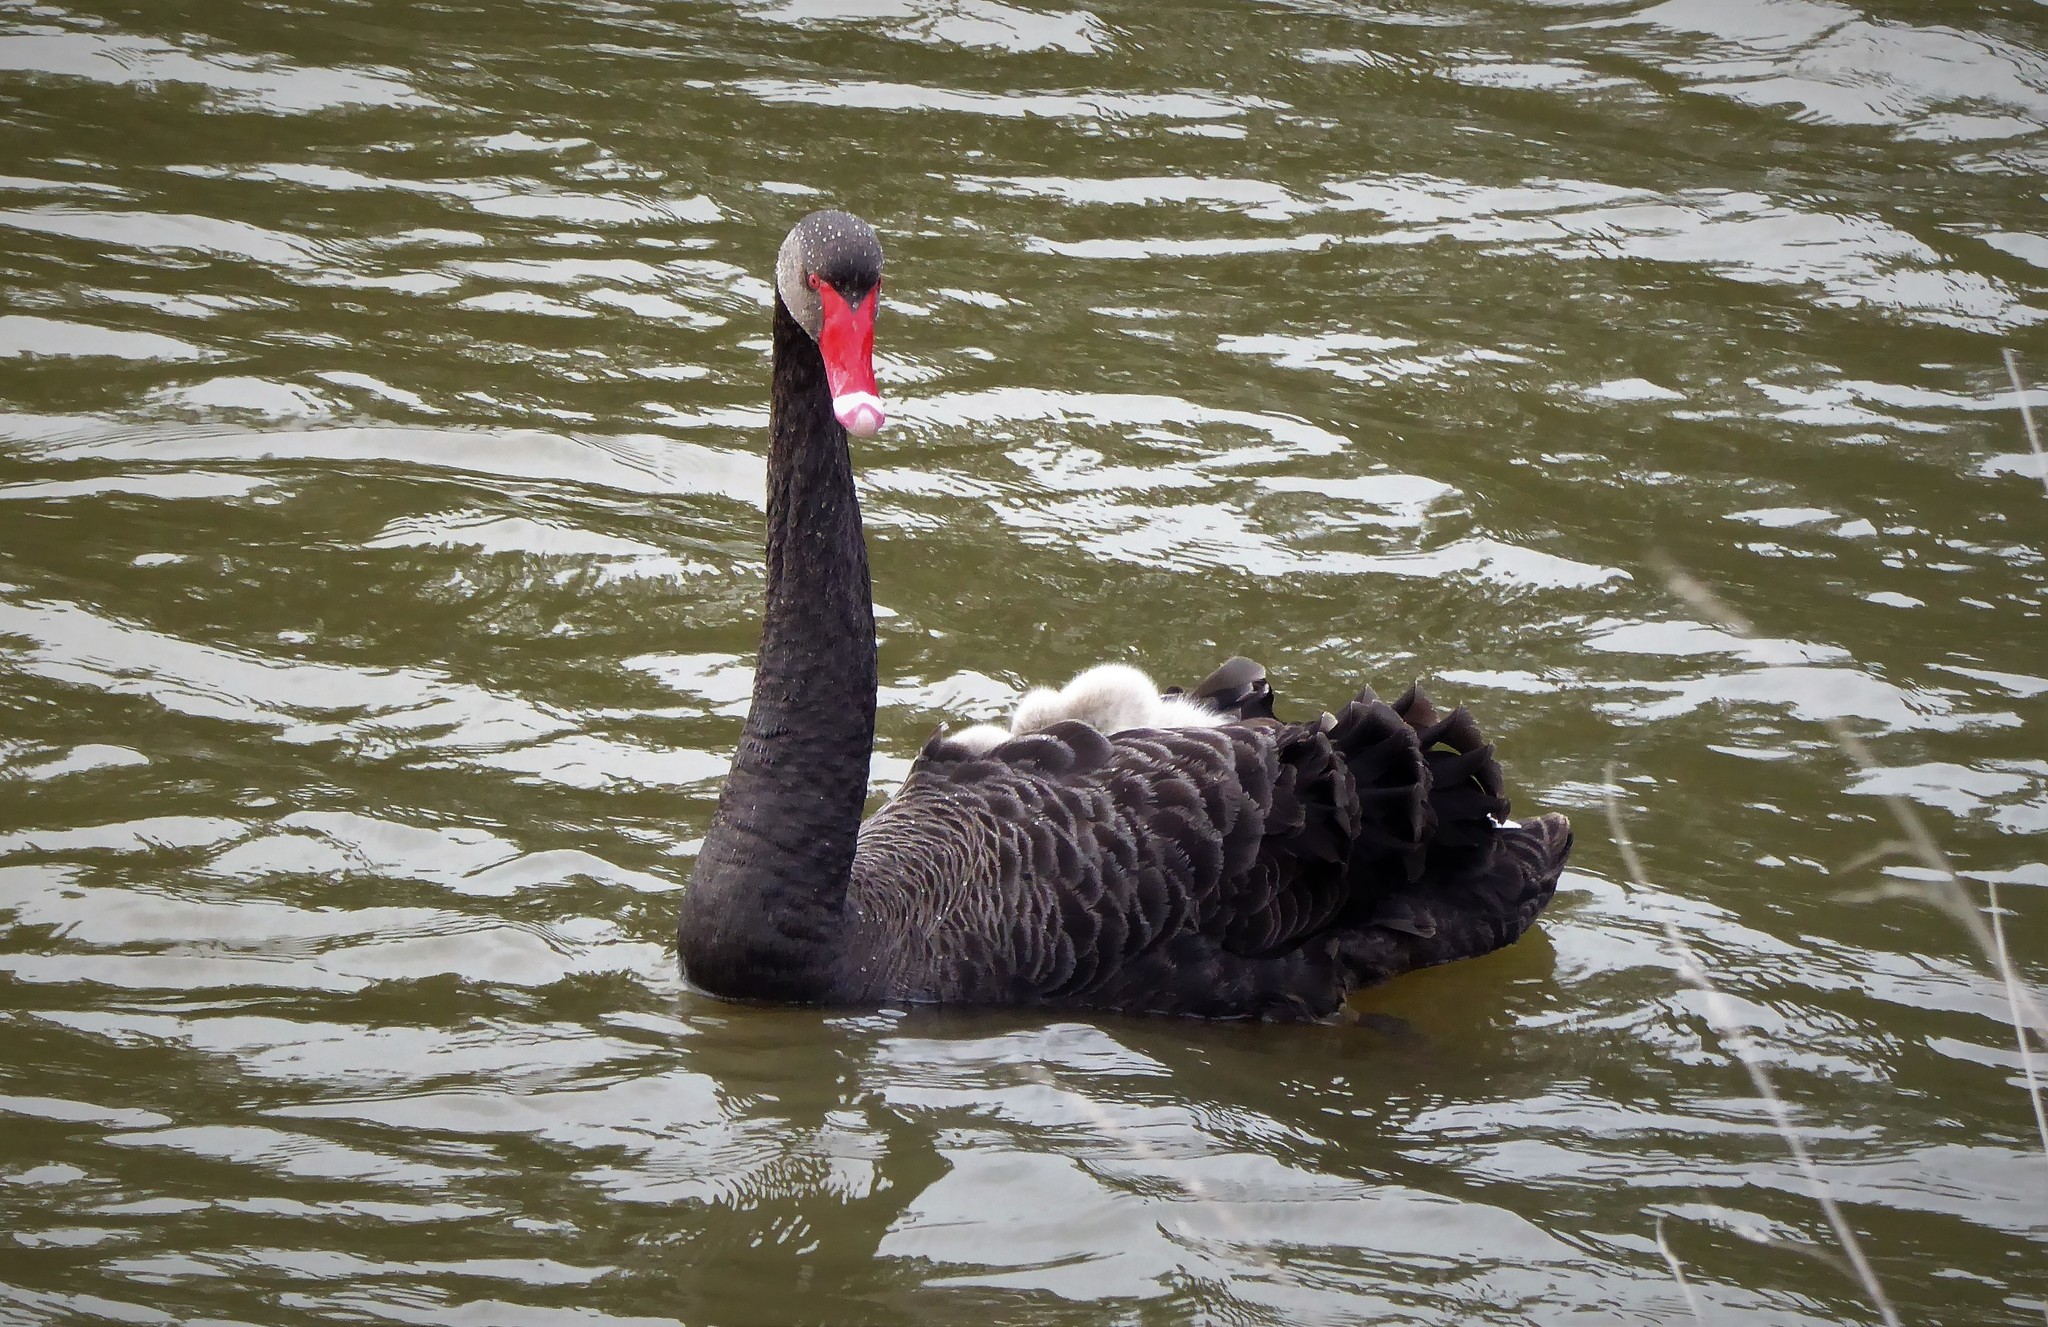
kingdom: Animalia
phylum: Chordata
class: Aves
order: Anseriformes
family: Anatidae
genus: Cygnus
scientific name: Cygnus atratus
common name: Black swan
